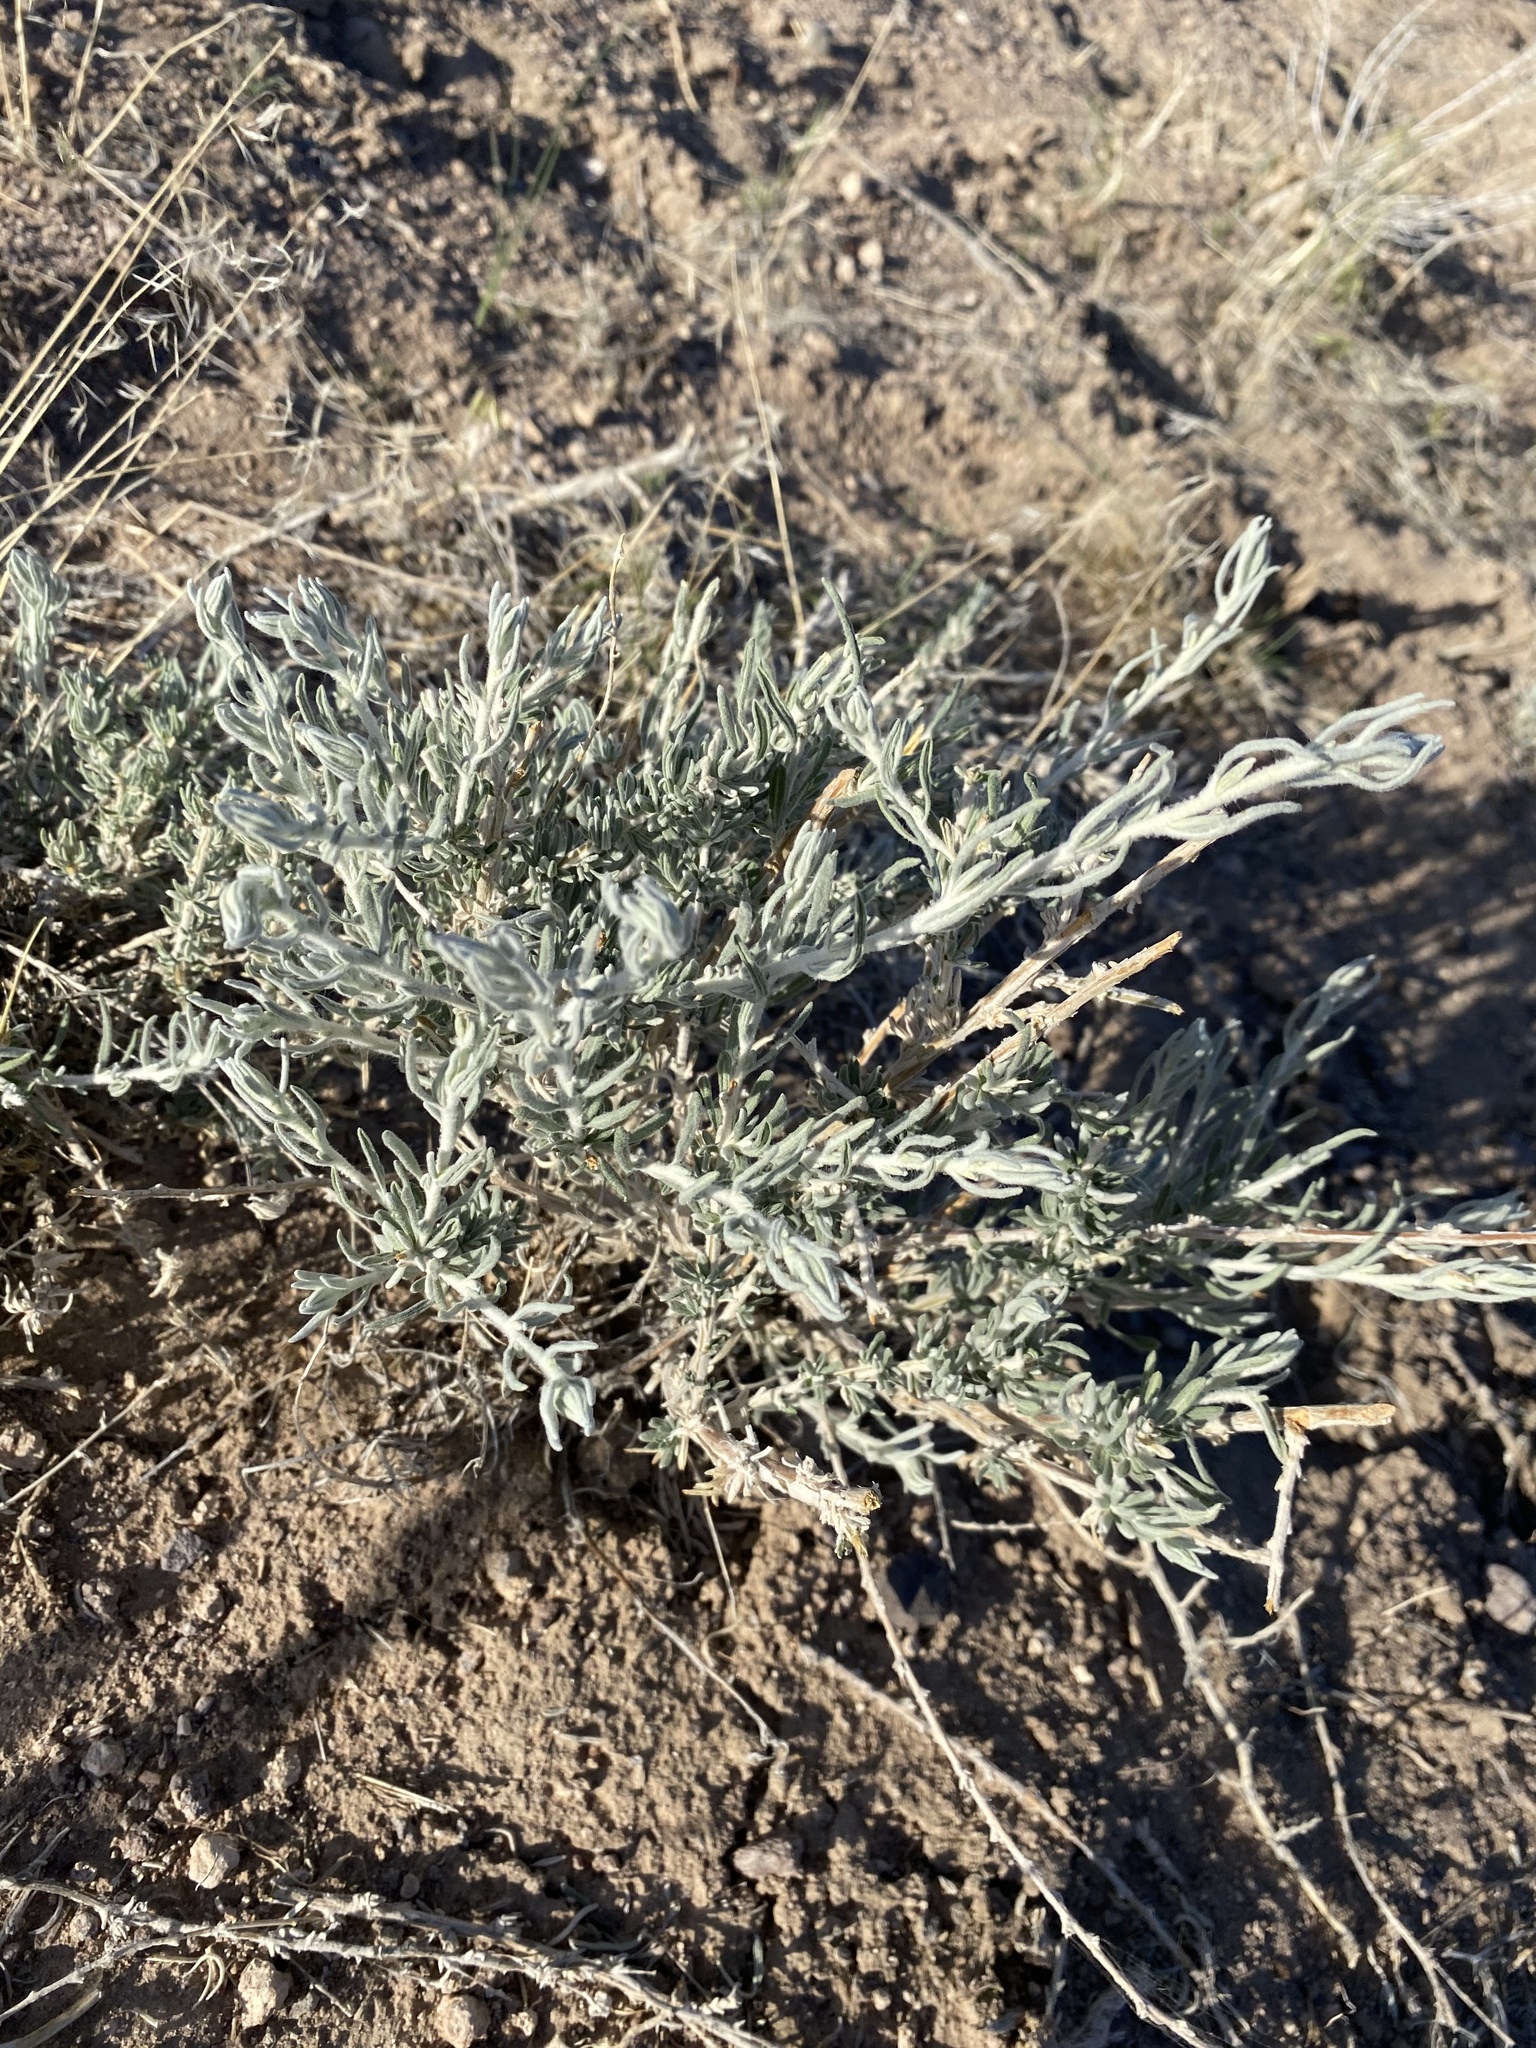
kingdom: Plantae
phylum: Tracheophyta
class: Magnoliopsida
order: Caryophyllales
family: Amaranthaceae
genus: Krascheninnikovia
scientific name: Krascheninnikovia lanata
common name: Winterfat
